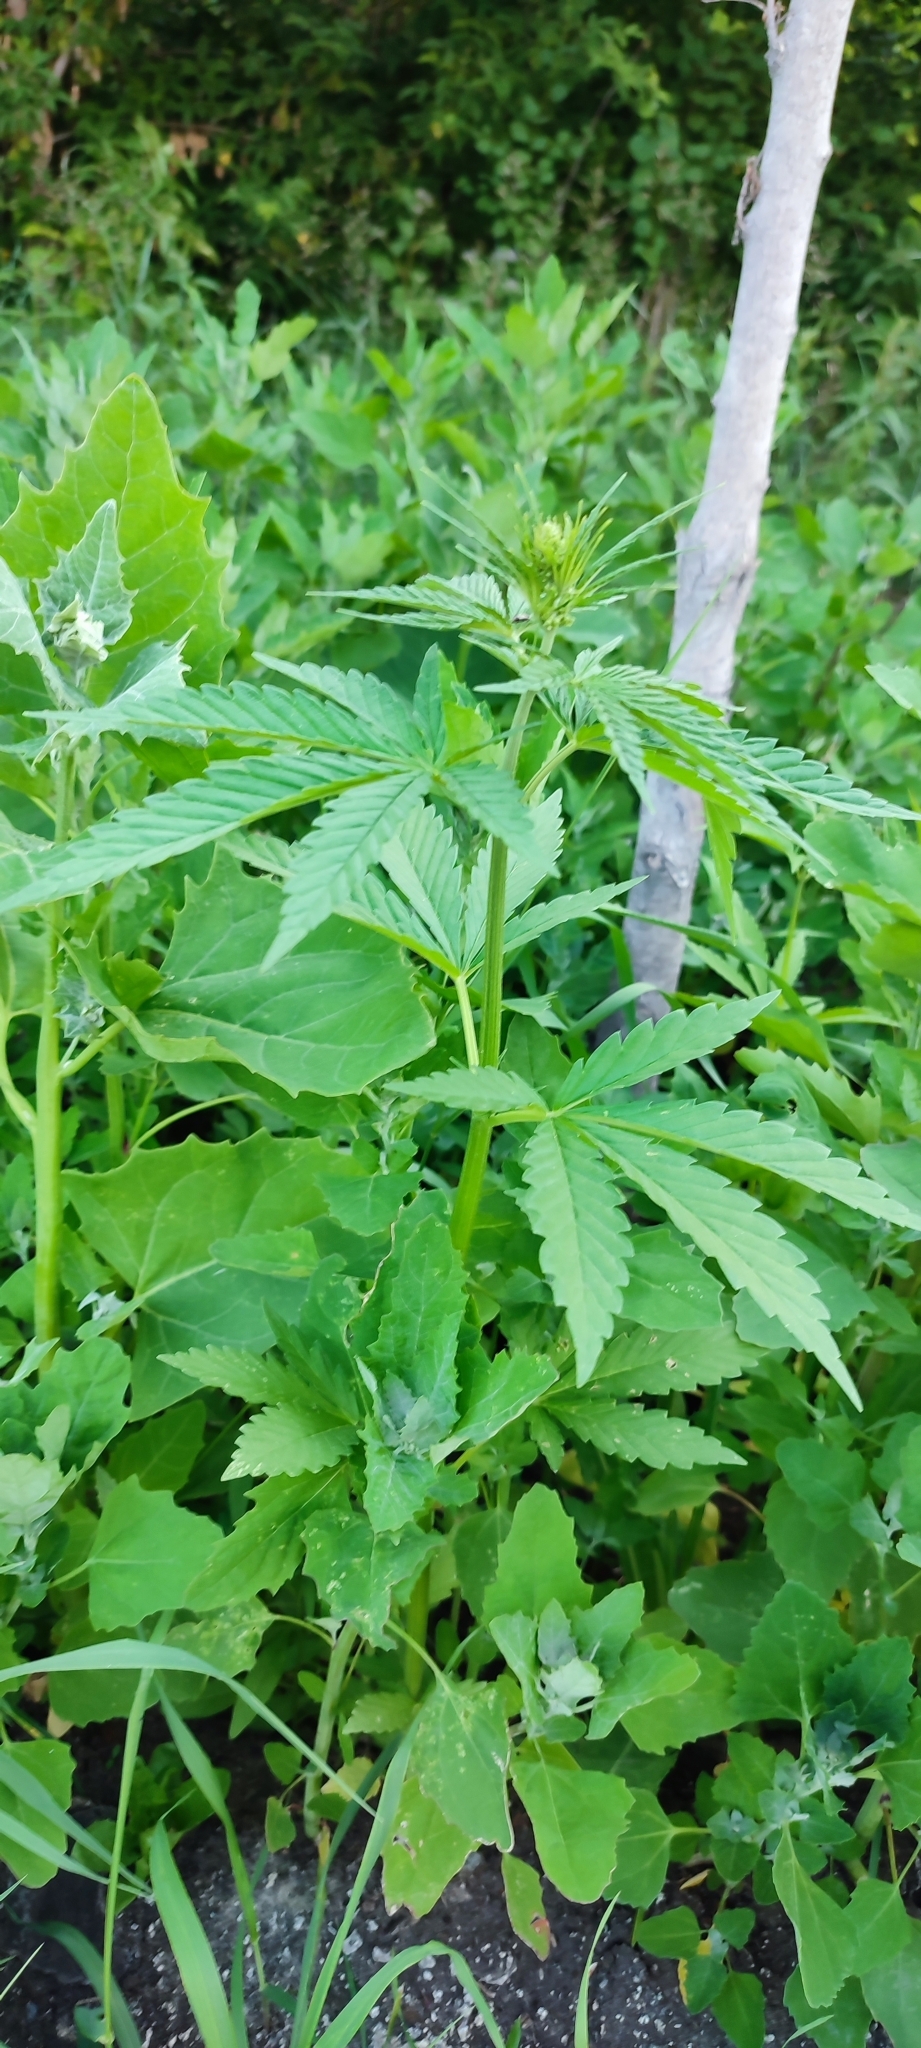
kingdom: Plantae
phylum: Tracheophyta
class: Magnoliopsida
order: Rosales
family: Cannabaceae
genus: Cannabis
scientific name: Cannabis sativa
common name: Hemp
